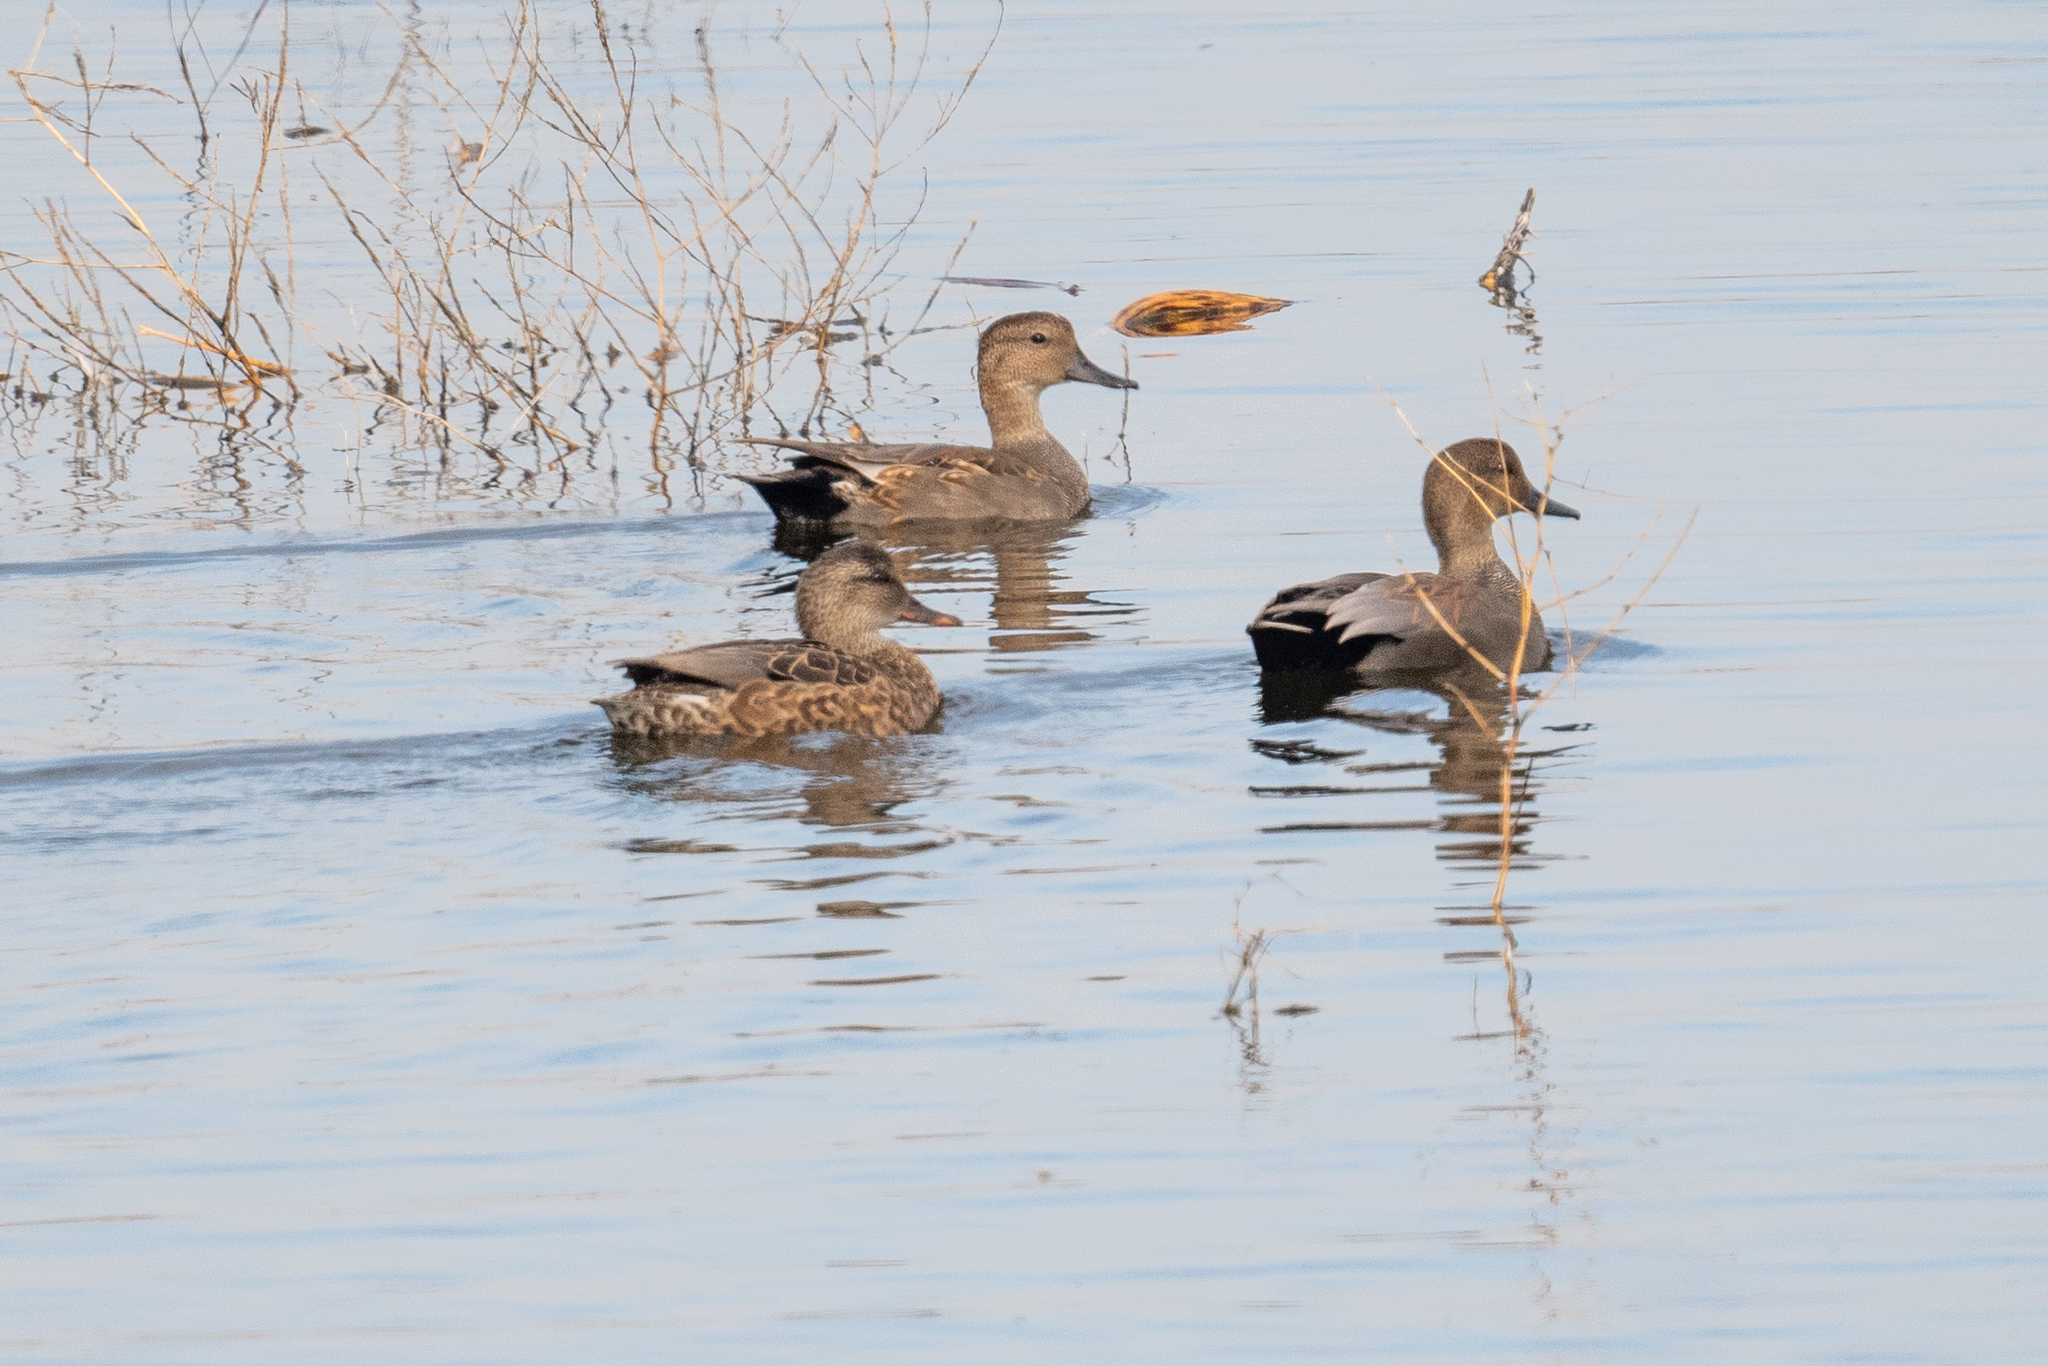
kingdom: Animalia
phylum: Chordata
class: Aves
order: Anseriformes
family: Anatidae
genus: Mareca
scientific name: Mareca strepera
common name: Gadwall
